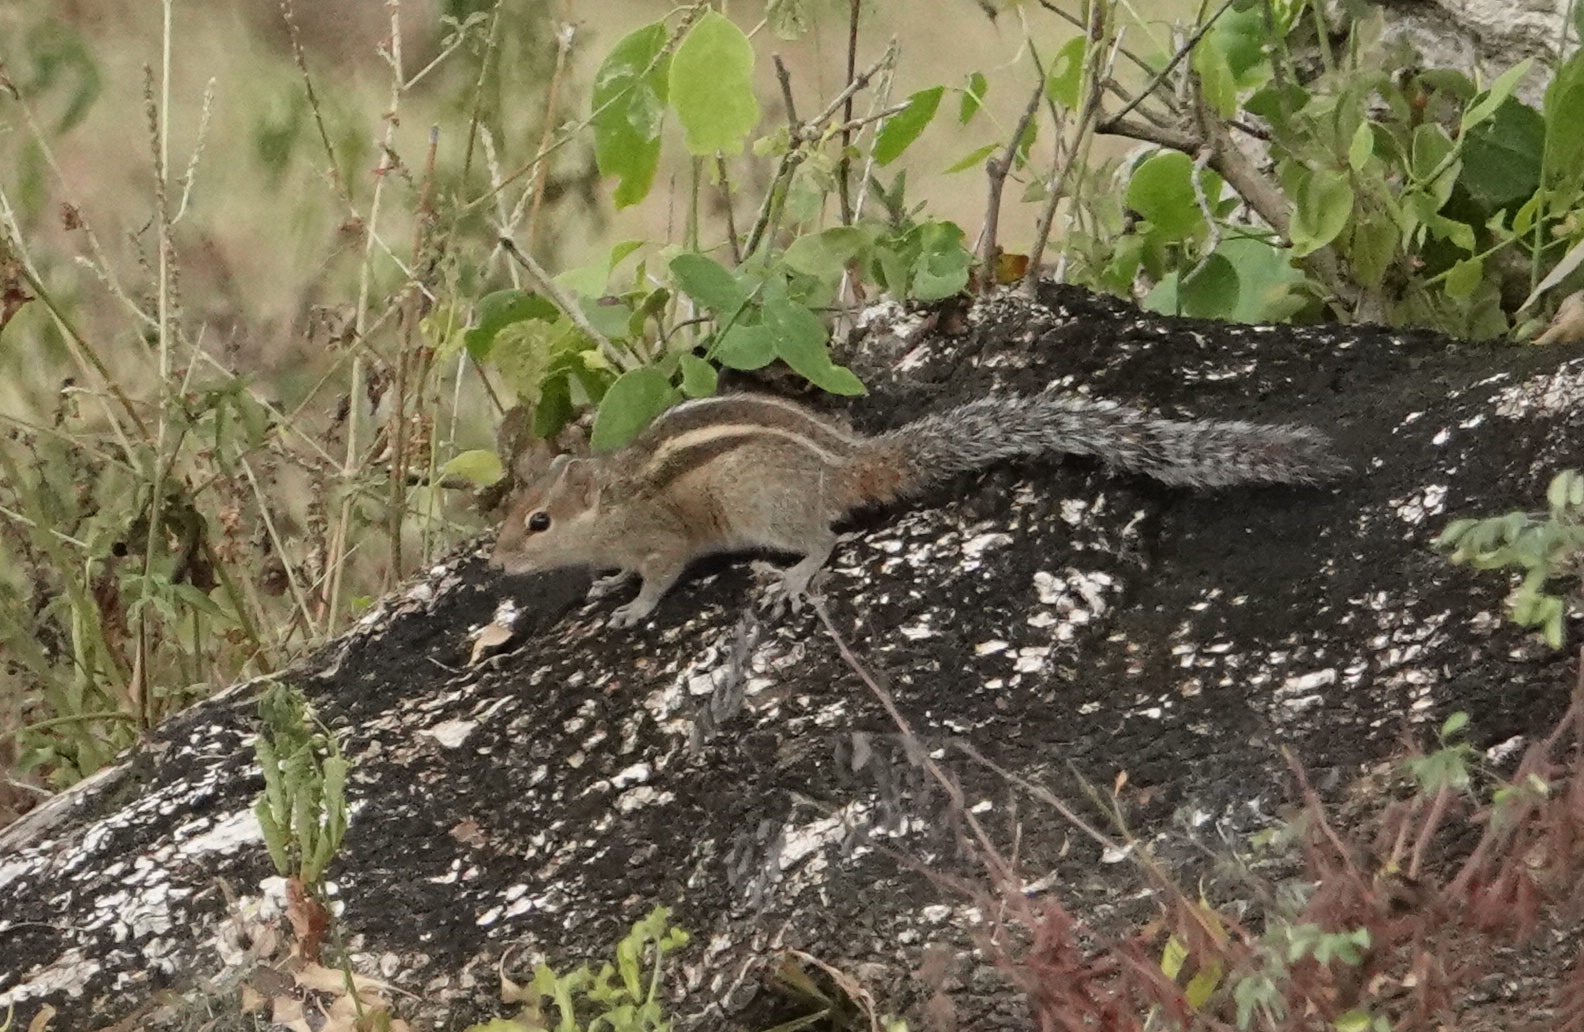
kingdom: Animalia
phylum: Chordata
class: Mammalia
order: Rodentia
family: Sciuridae
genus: Funambulus
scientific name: Funambulus palmarum
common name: Indian palm squirrel
